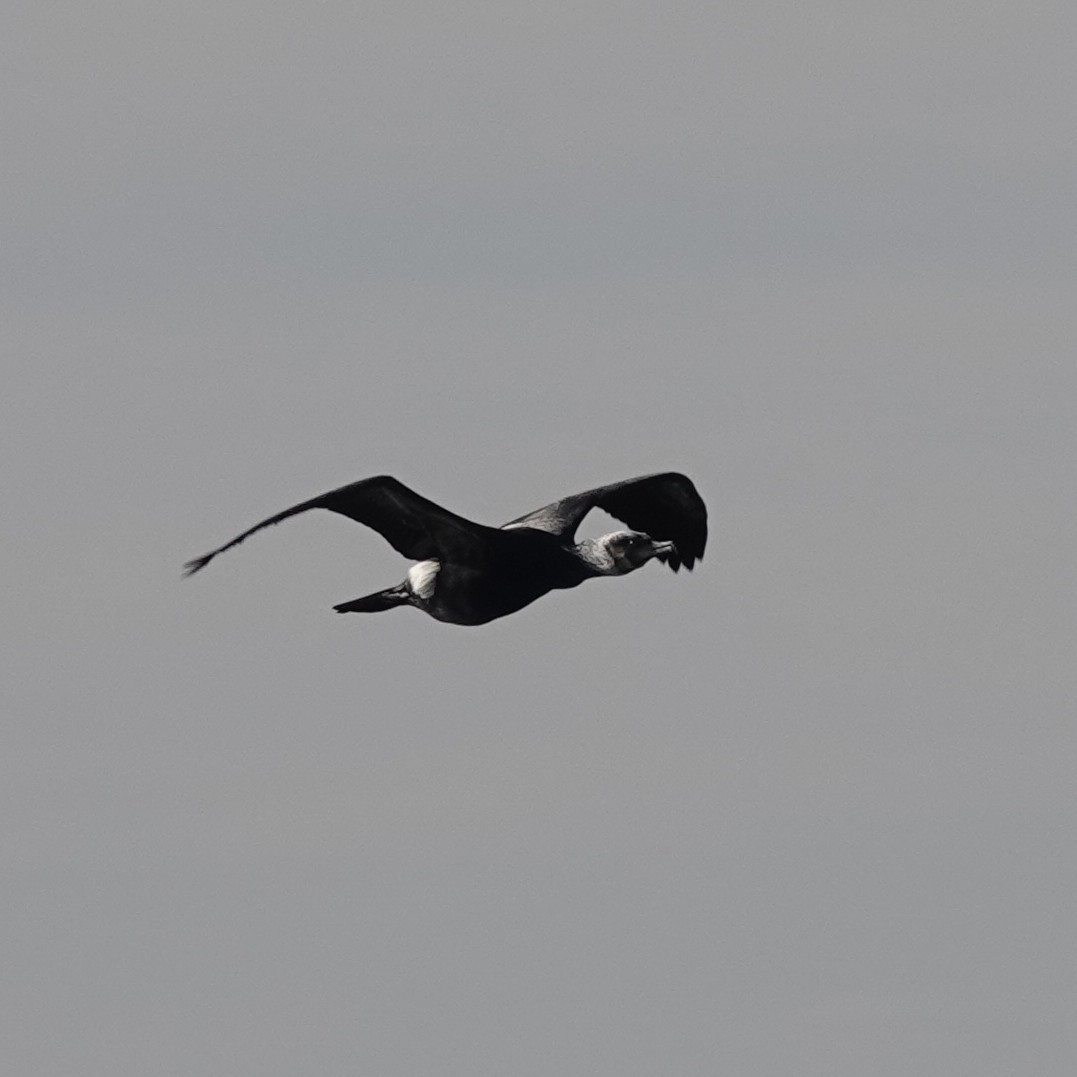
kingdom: Animalia
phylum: Chordata
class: Aves
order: Suliformes
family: Phalacrocoracidae
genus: Phalacrocorax
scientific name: Phalacrocorax carbo
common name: Great cormorant
